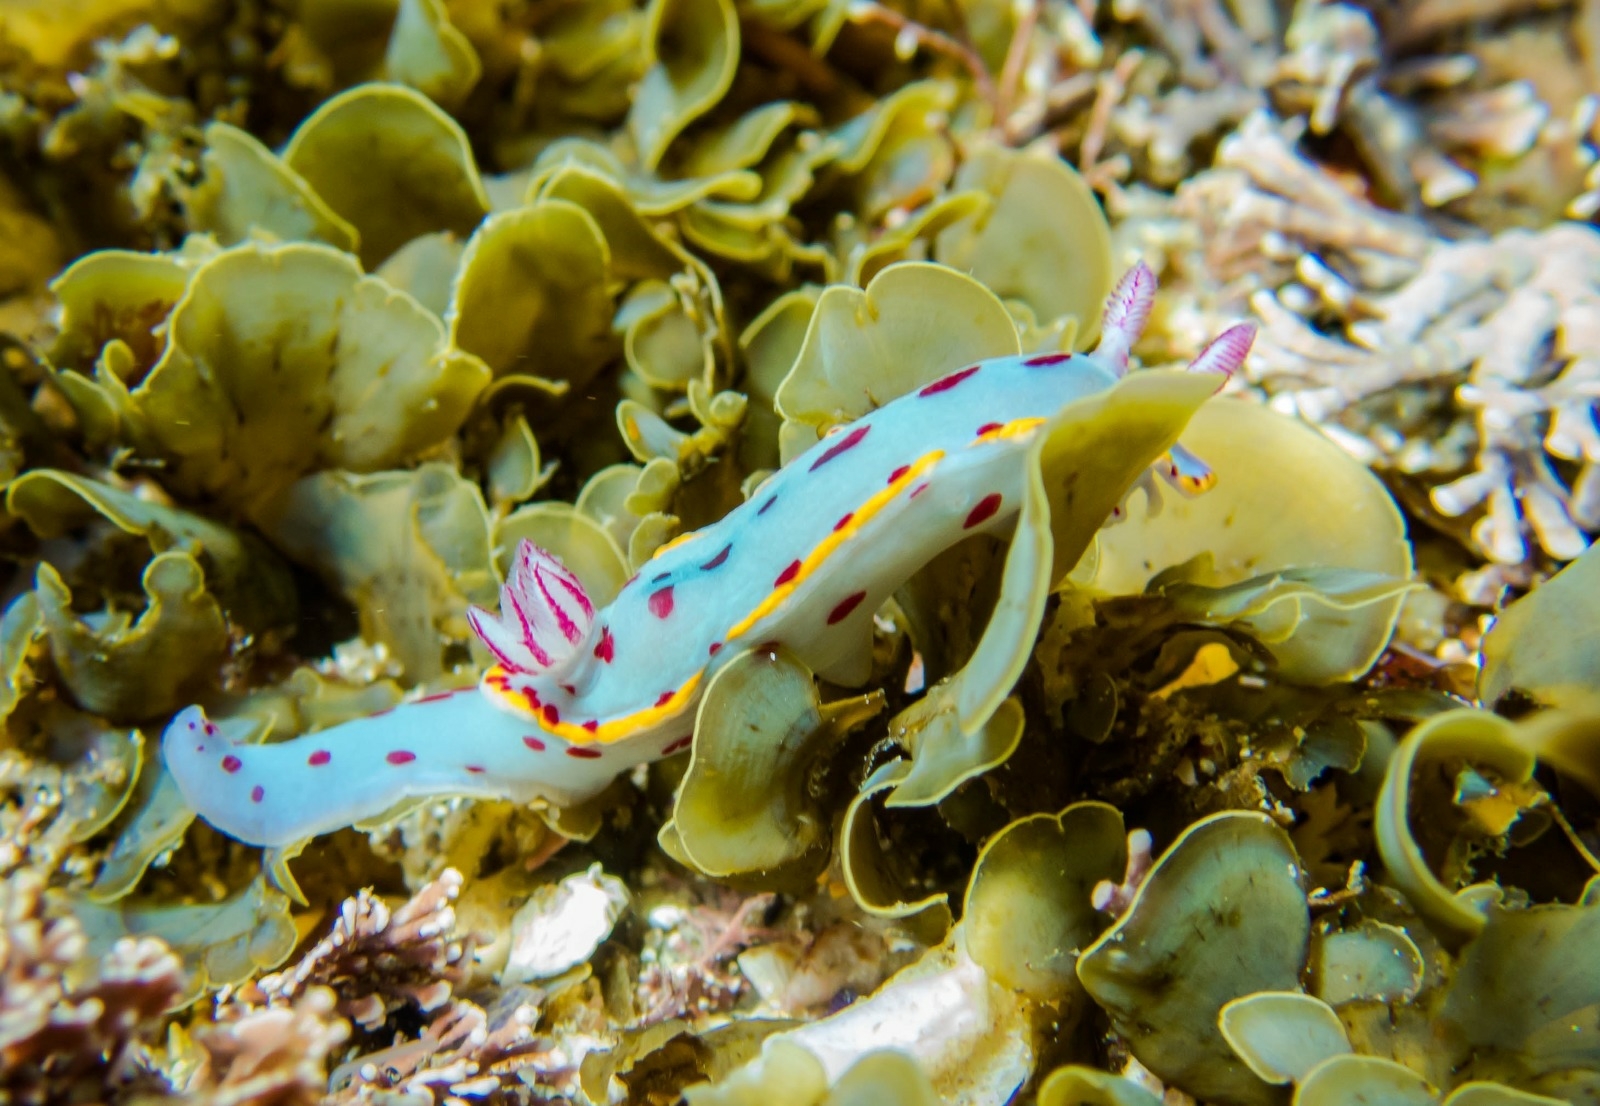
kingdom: Animalia
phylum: Mollusca
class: Gastropoda
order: Nudibranchia
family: Chromodorididae
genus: Hypselodoris
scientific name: Hypselodoris bennetti
